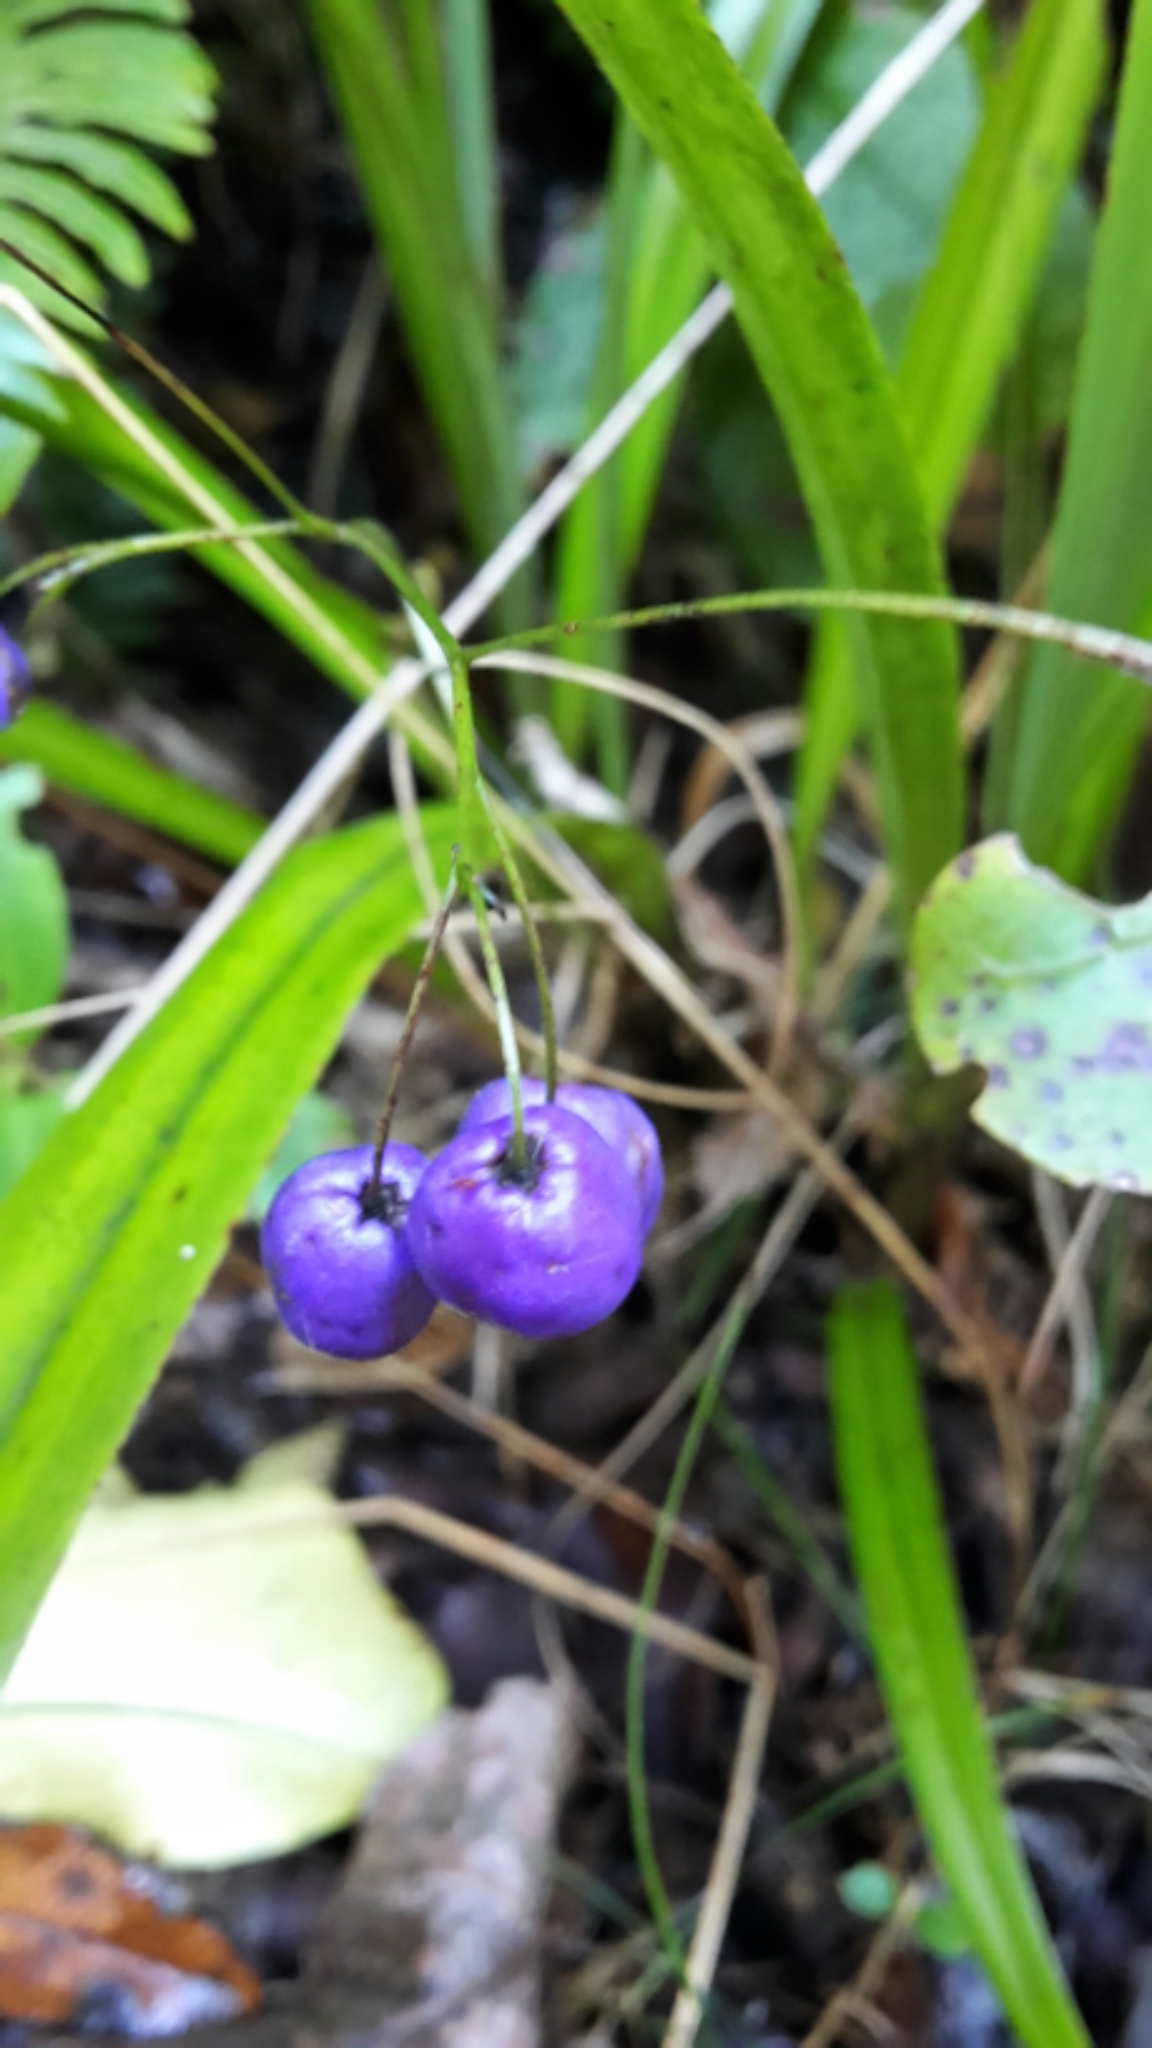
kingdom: Plantae
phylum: Tracheophyta
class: Liliopsida
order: Asparagales
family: Asphodelaceae
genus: Dianella
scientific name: Dianella nigra
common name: New zealand-blueberry
